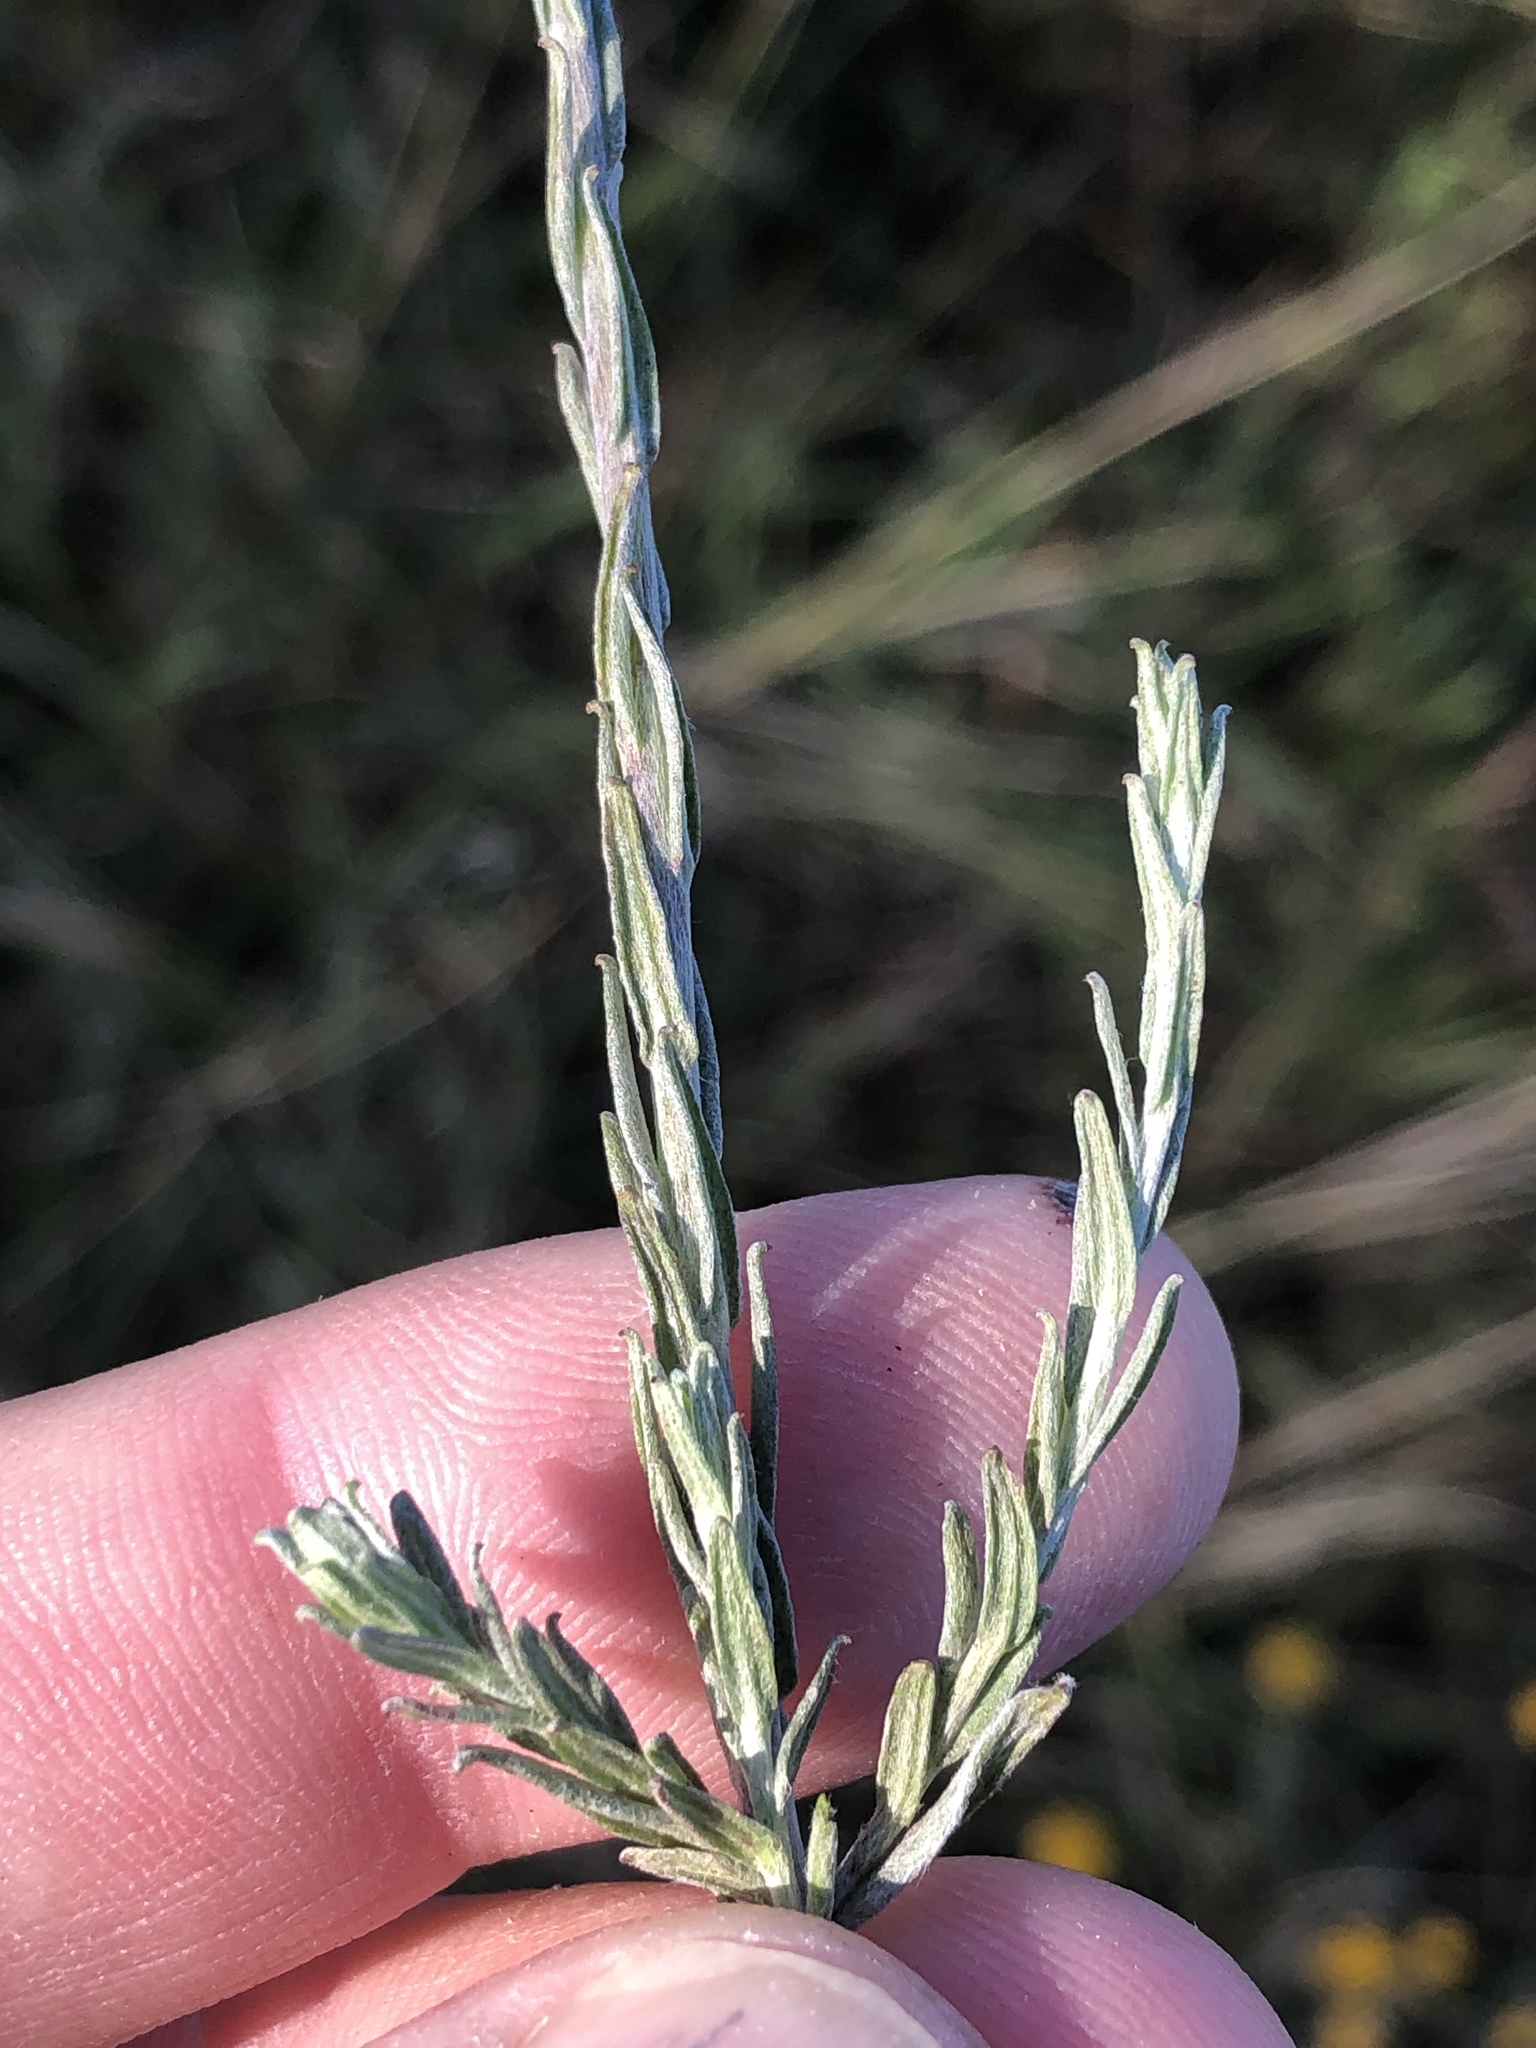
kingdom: Plantae
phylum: Tracheophyta
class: Magnoliopsida
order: Asterales
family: Asteraceae
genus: Helichrysum
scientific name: Helichrysum anomalum
